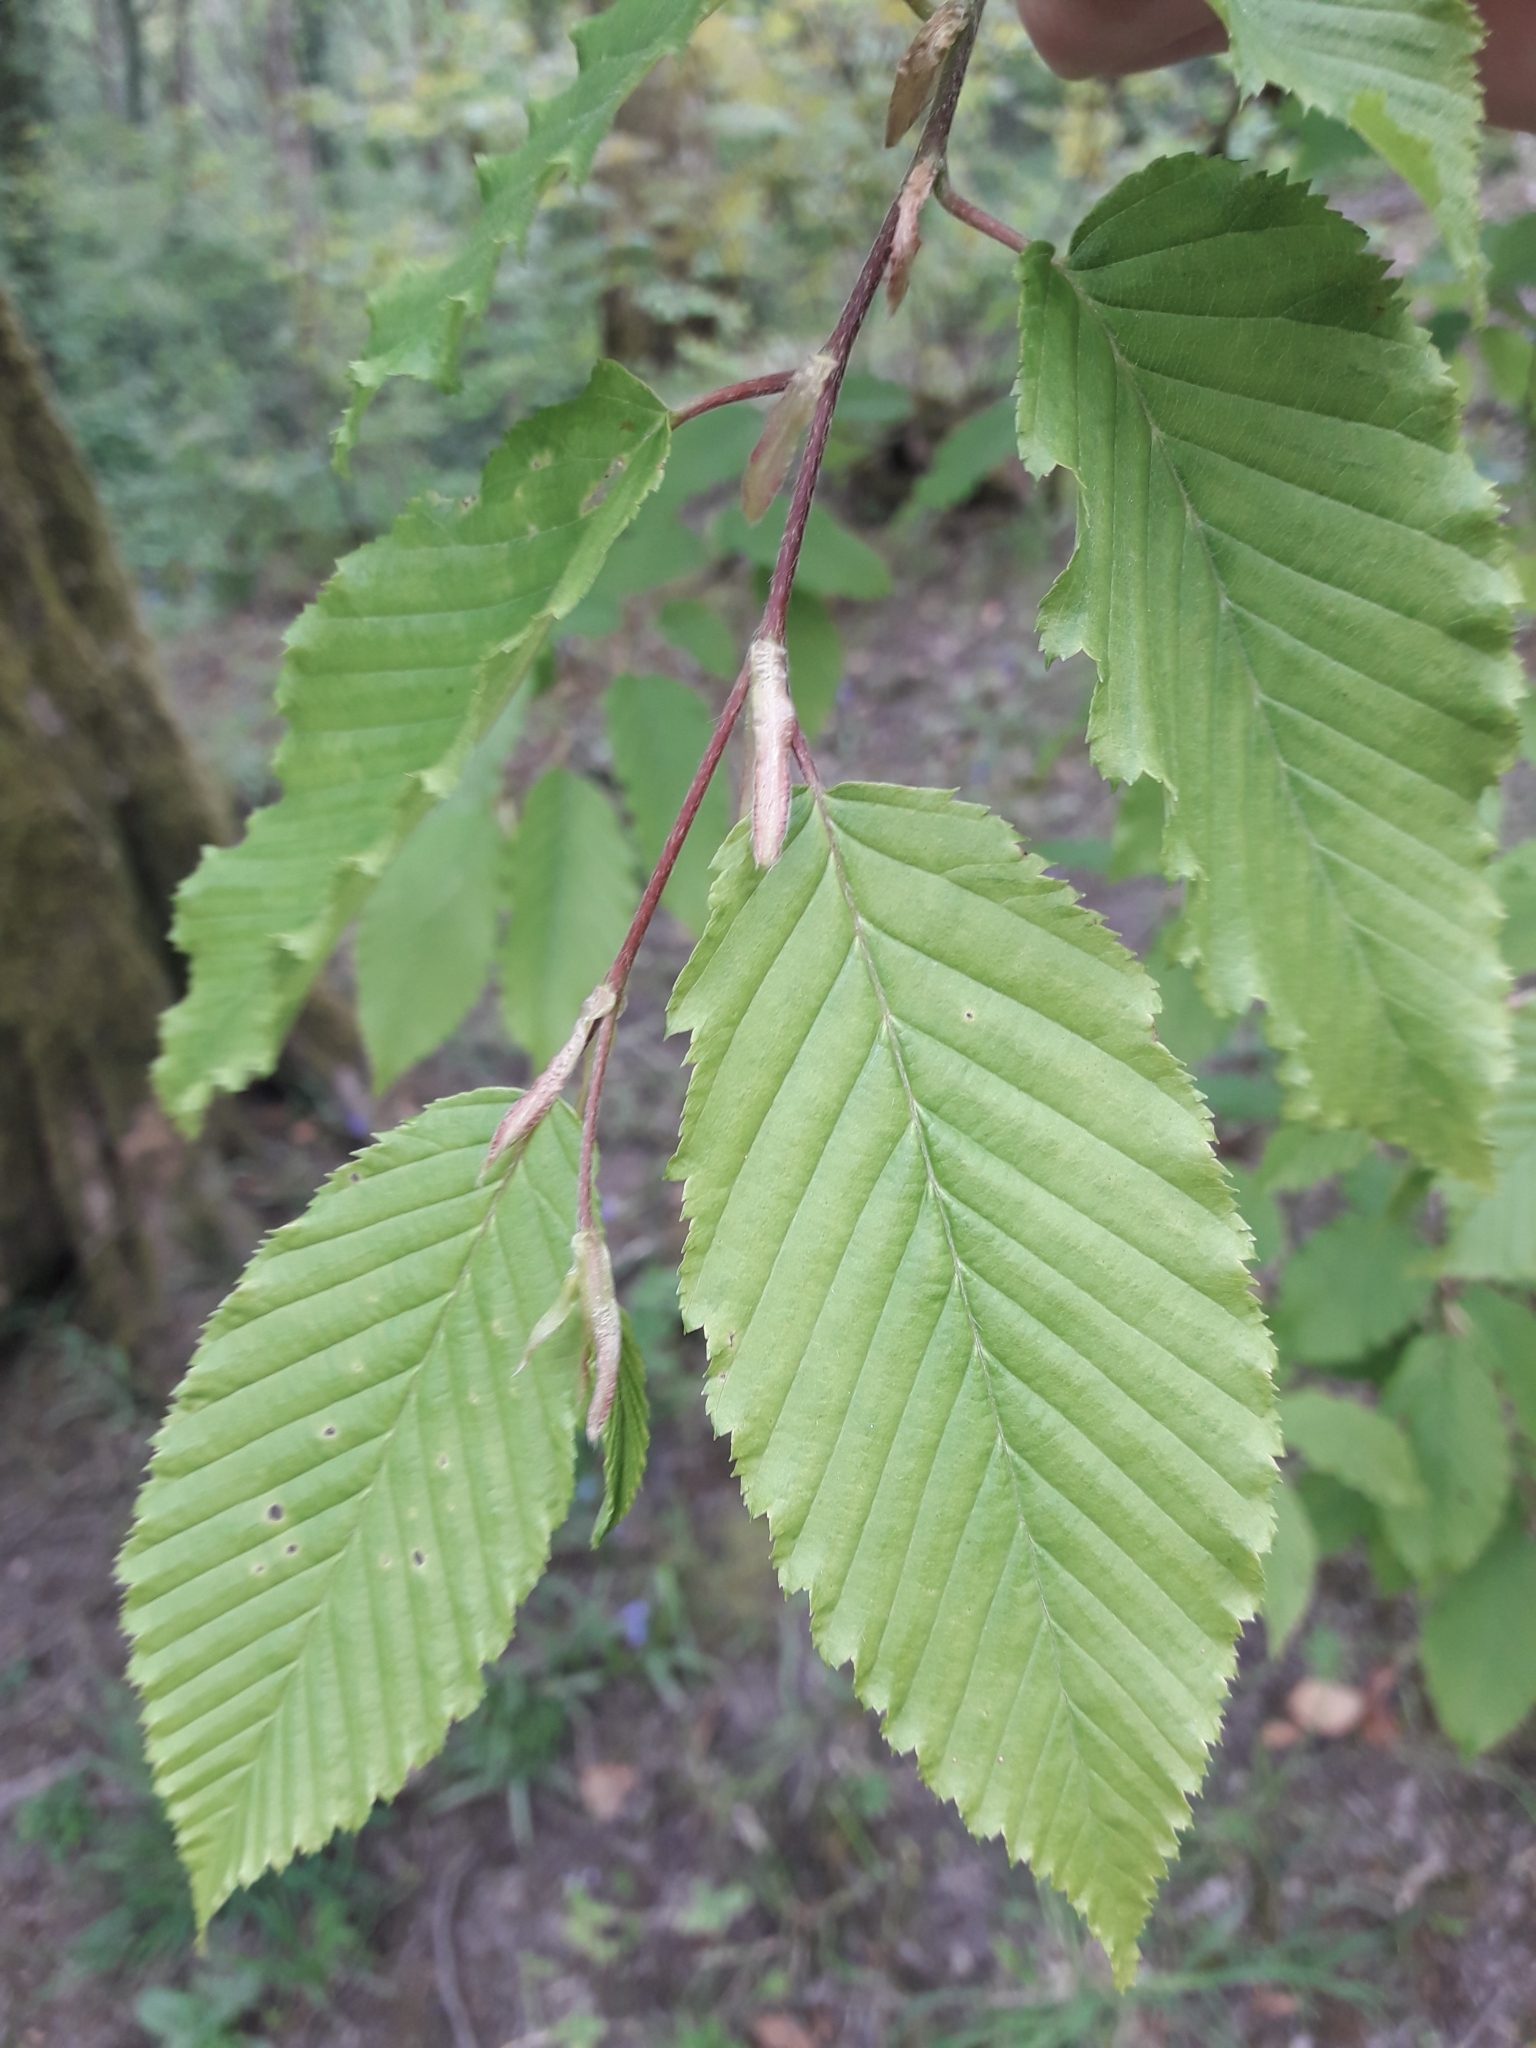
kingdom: Plantae
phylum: Tracheophyta
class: Magnoliopsida
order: Fagales
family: Betulaceae
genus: Carpinus
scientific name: Carpinus betulus
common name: Hornbeam
